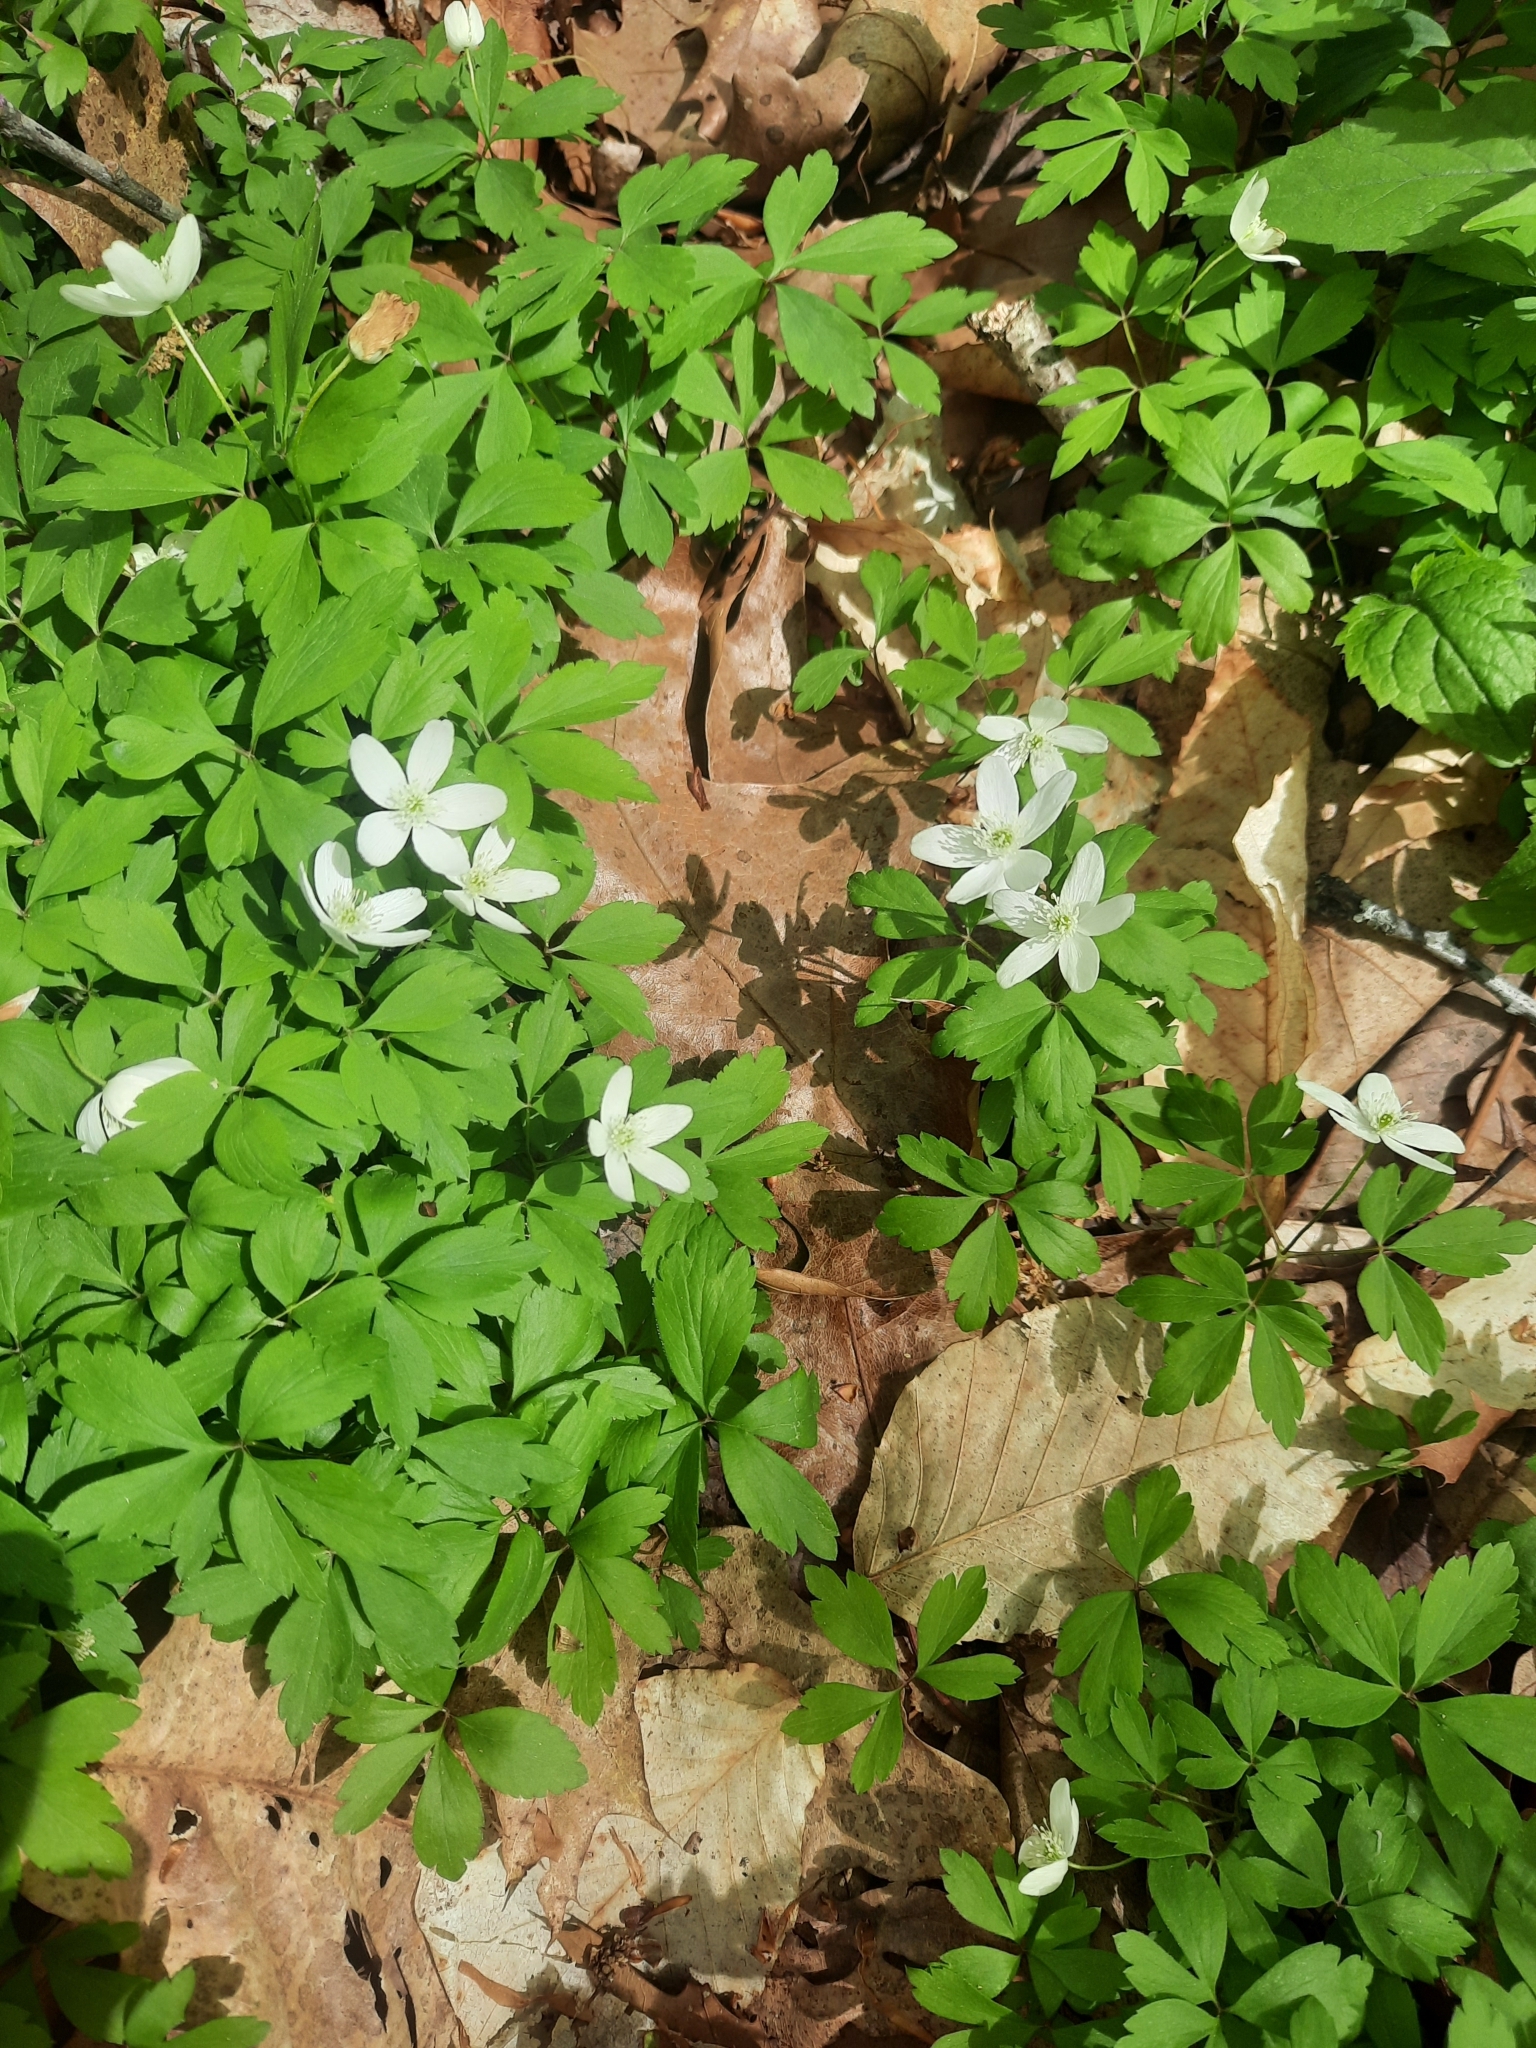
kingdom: Plantae
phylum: Tracheophyta
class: Magnoliopsida
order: Ranunculales
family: Ranunculaceae
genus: Anemone
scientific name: Anemone quinquefolia
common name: Wood anemone
